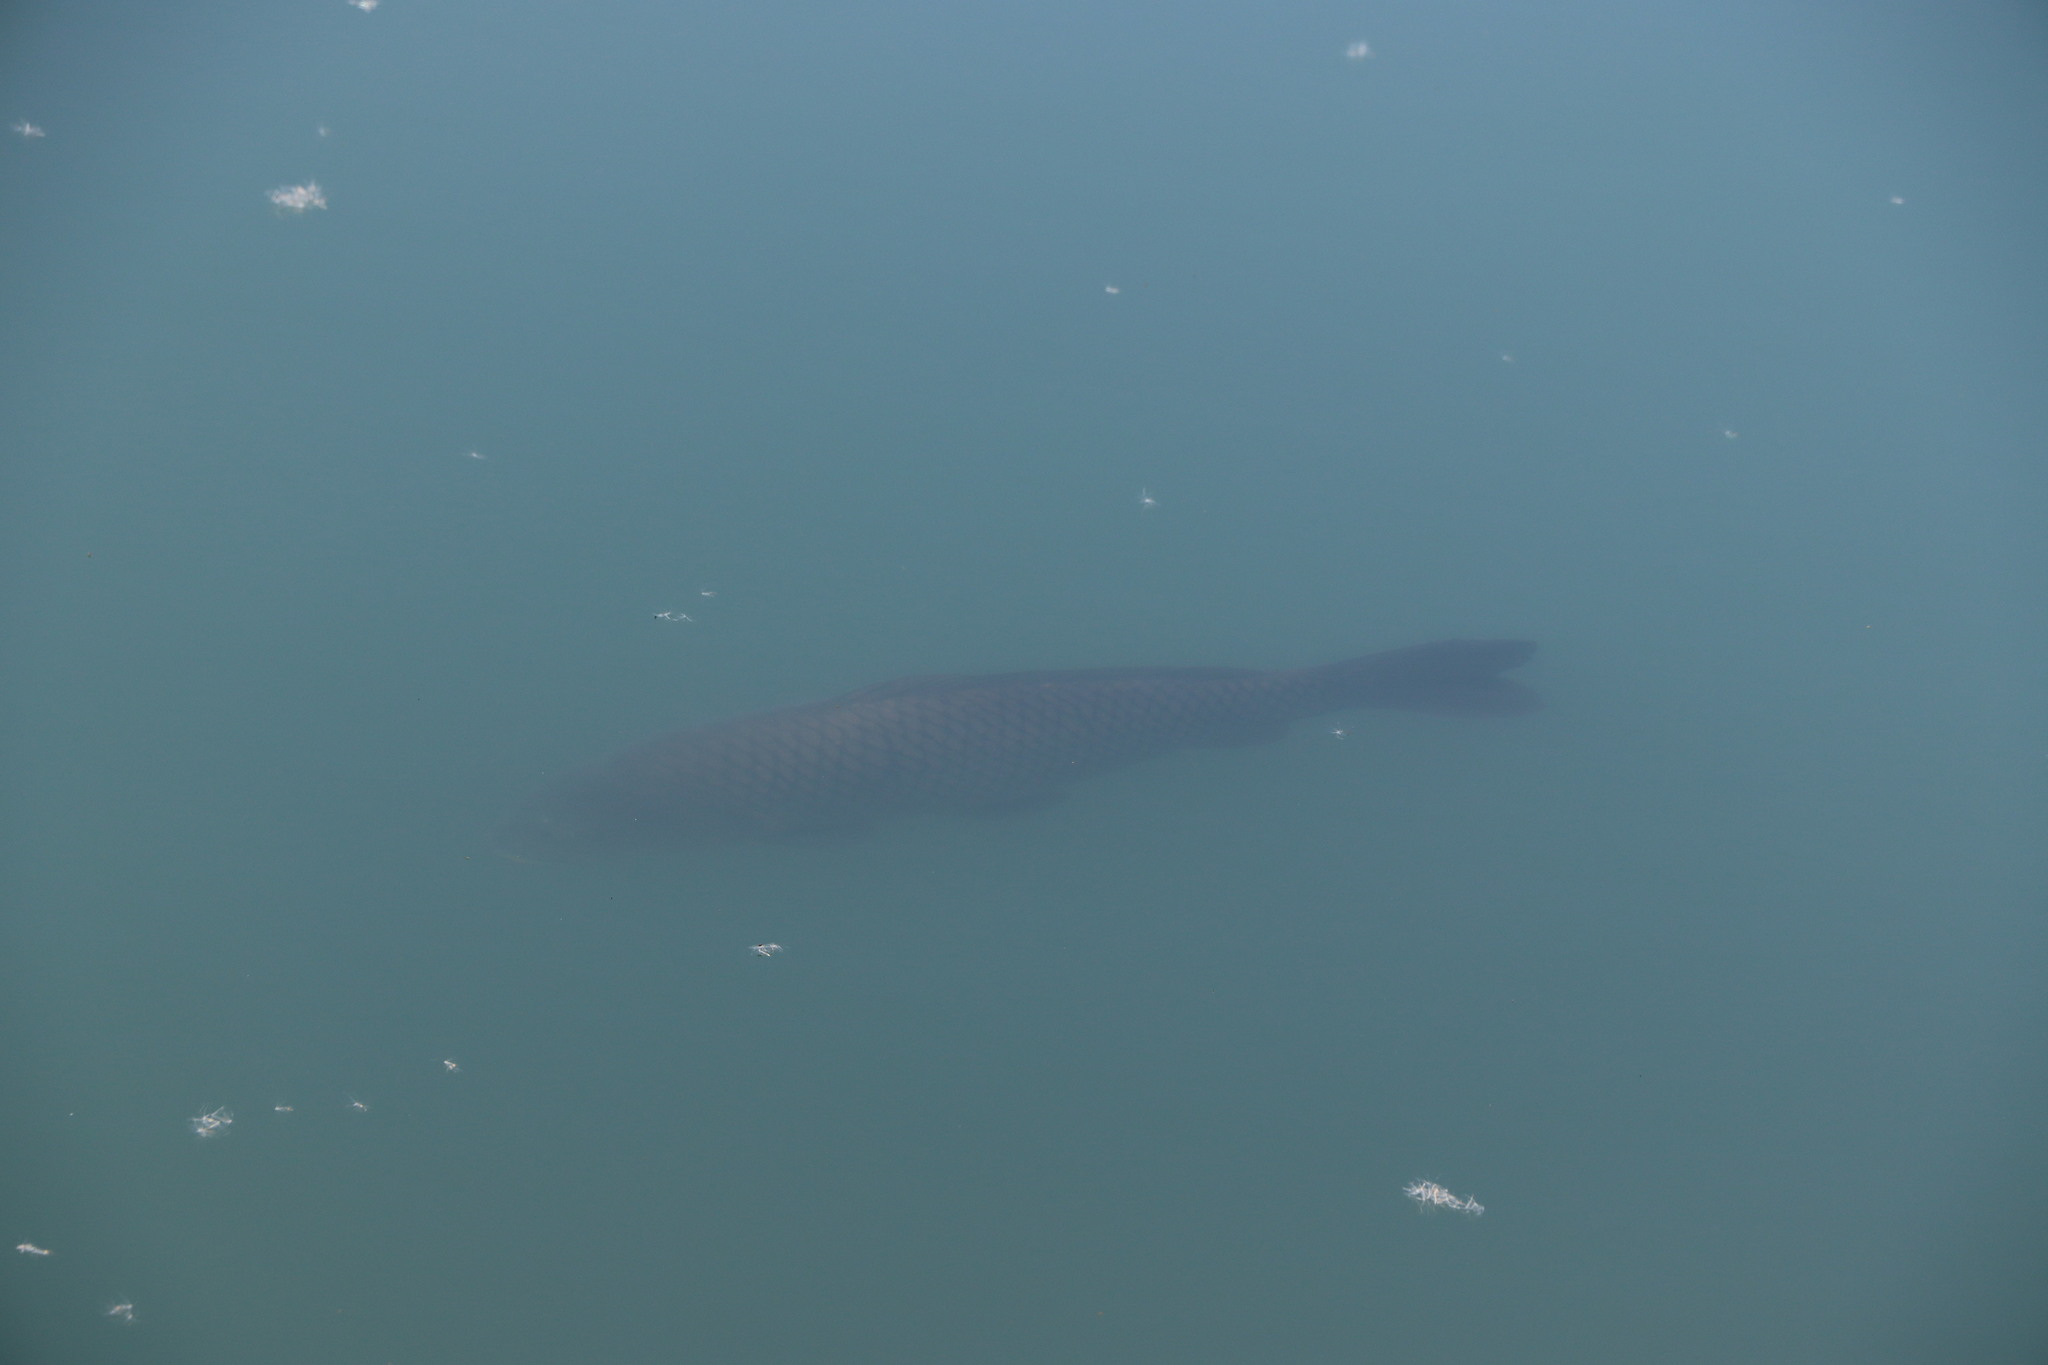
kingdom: Animalia
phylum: Chordata
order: Cypriniformes
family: Cyprinidae
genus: Cyprinus
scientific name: Cyprinus carpio
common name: Common carp
